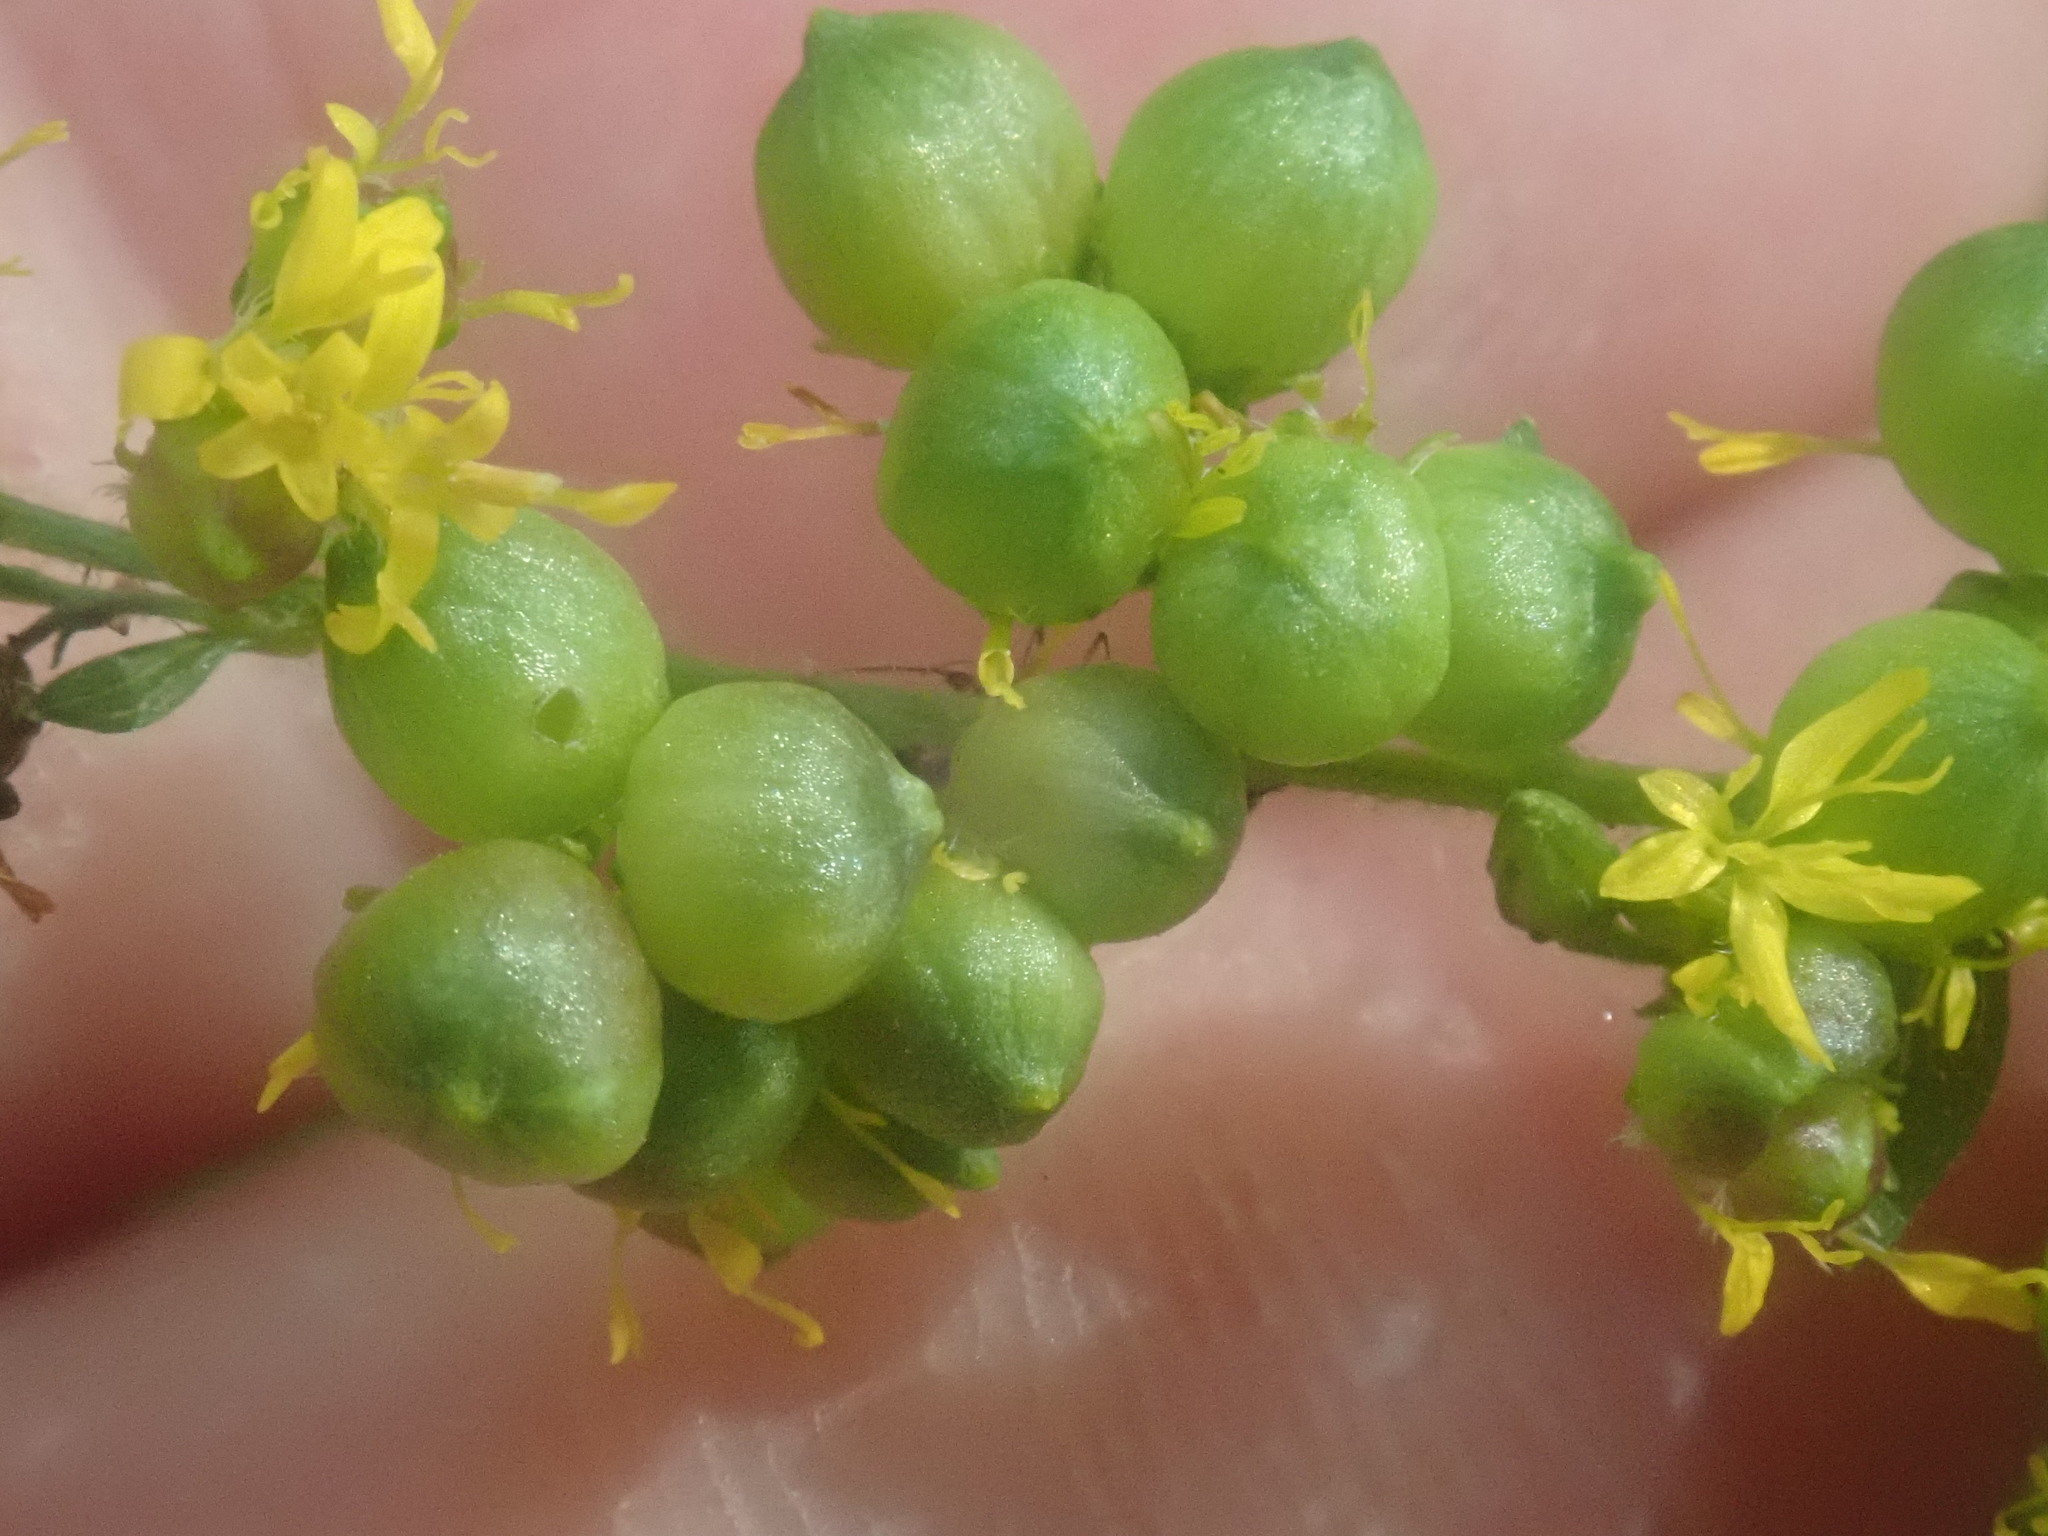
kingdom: Animalia
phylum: Arthropoda
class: Insecta
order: Diptera
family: Cecidomyiidae
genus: Schizomyia
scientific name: Schizomyia racemicola
